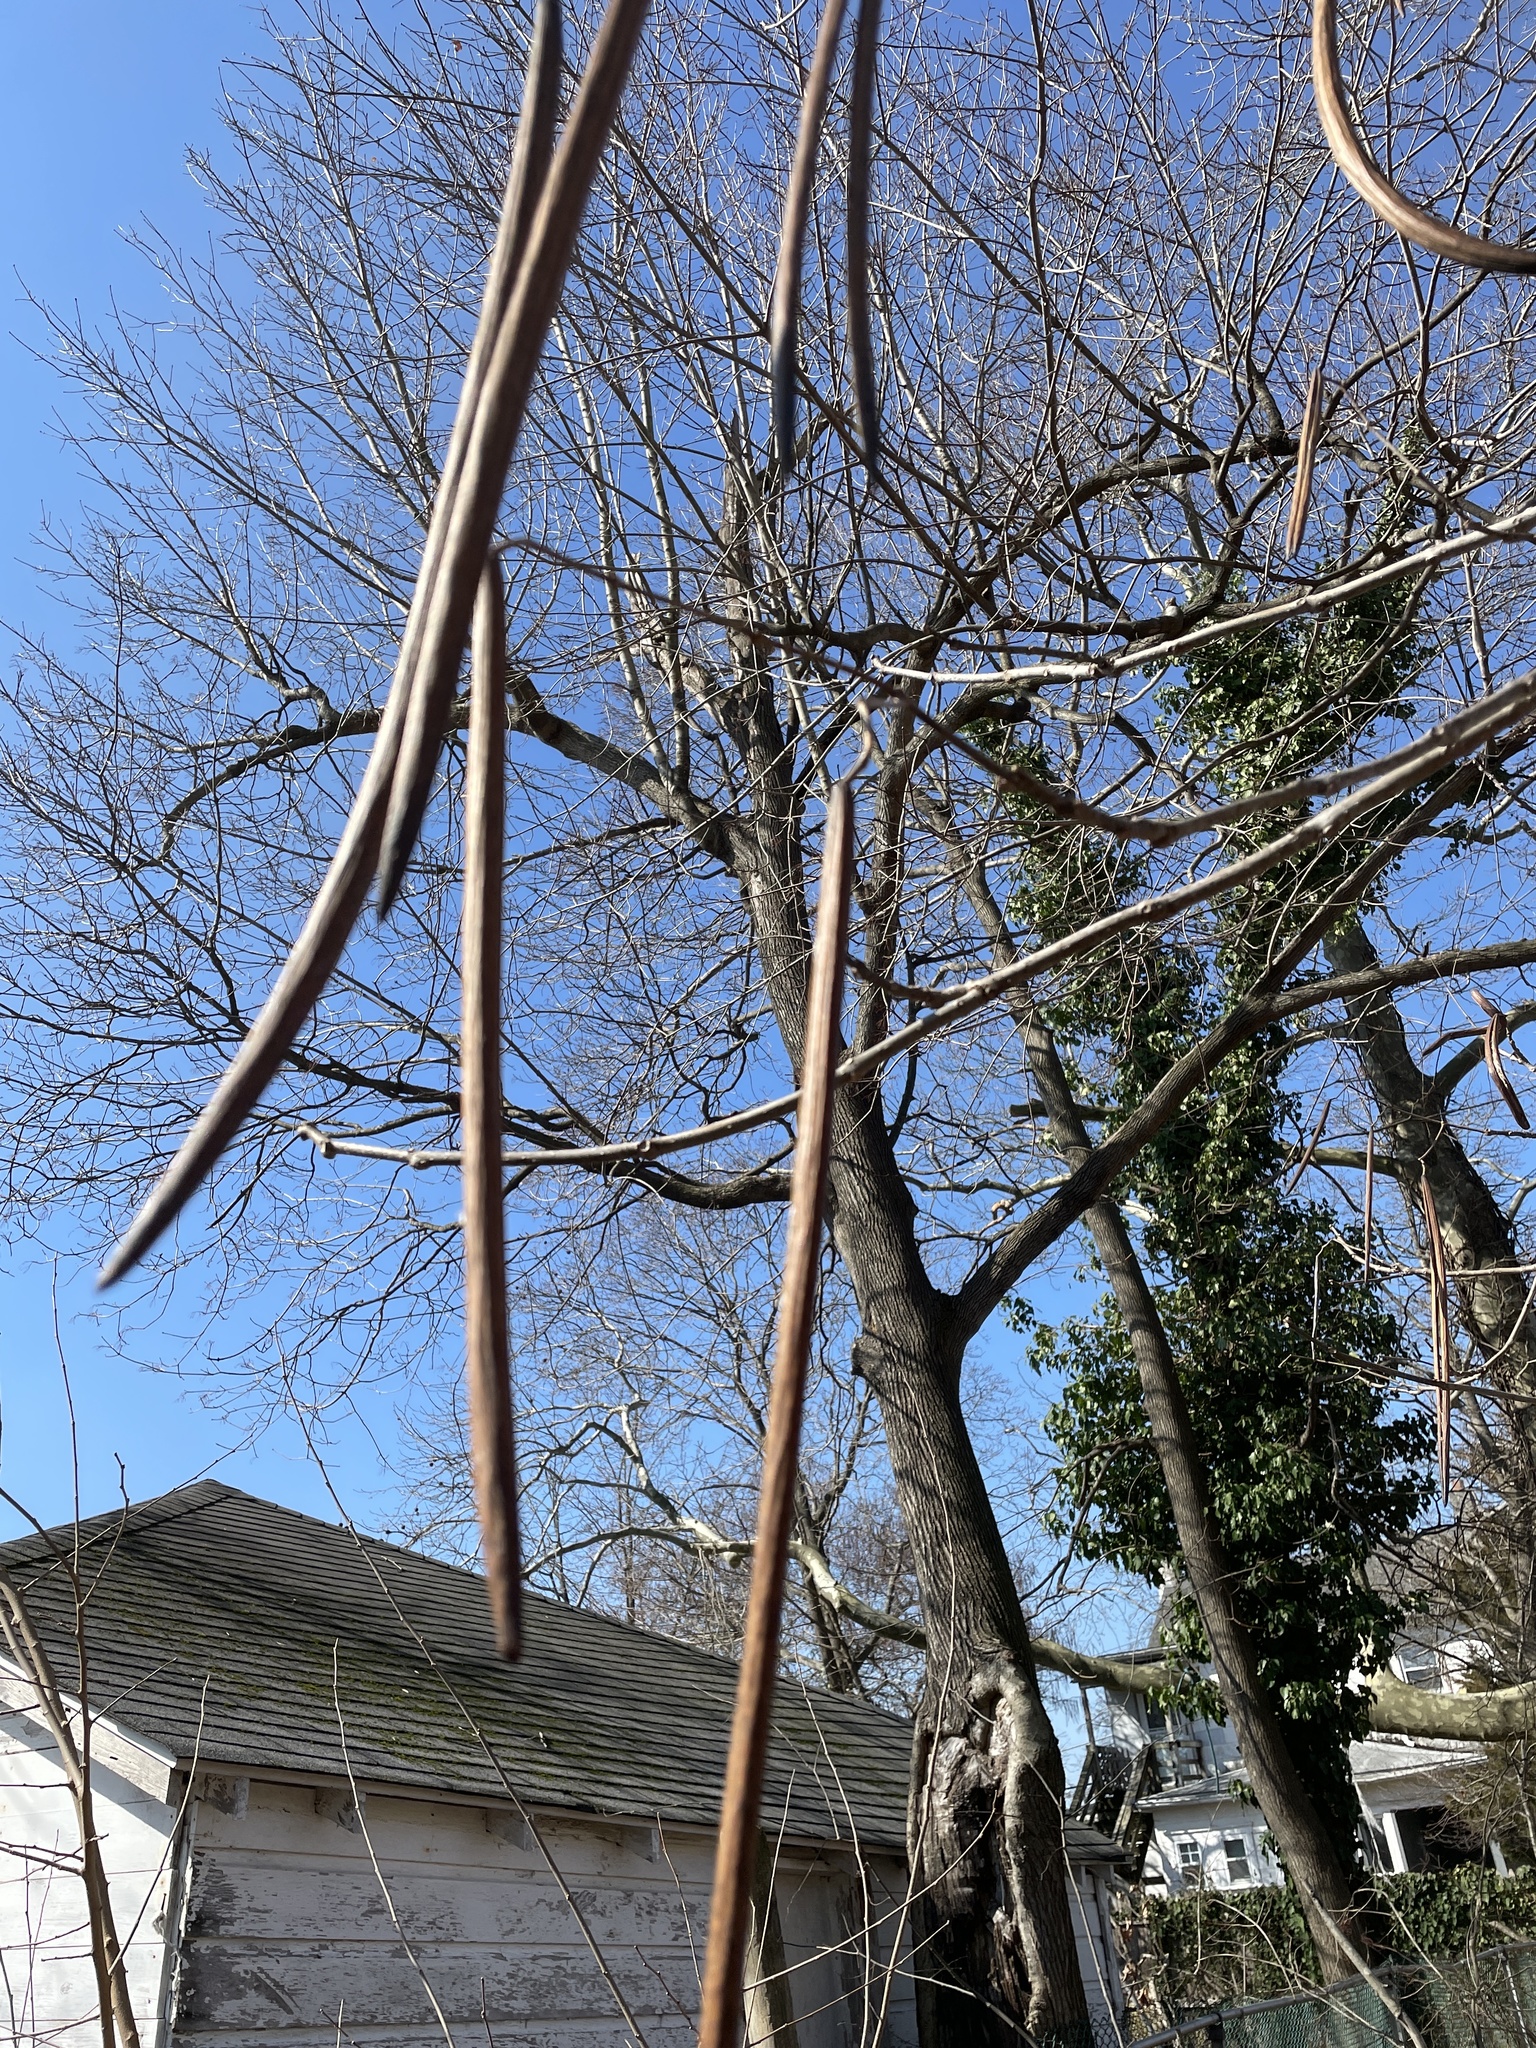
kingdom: Plantae
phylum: Tracheophyta
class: Magnoliopsida
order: Lamiales
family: Bignoniaceae
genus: Catalpa
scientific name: Catalpa speciosa
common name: Northern catalpa
